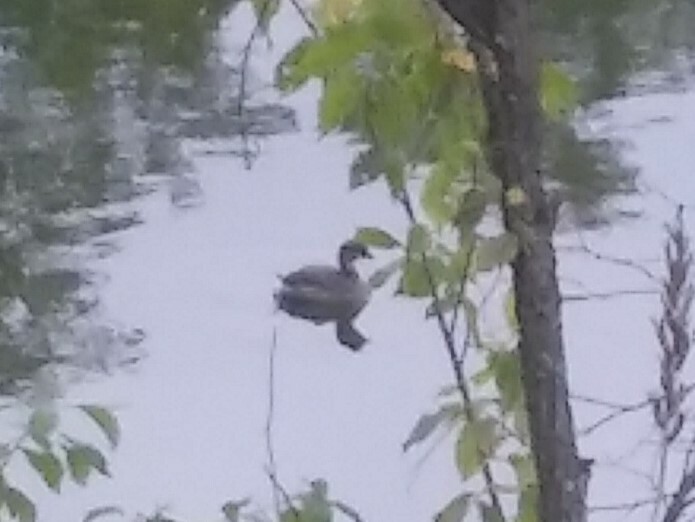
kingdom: Animalia
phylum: Chordata
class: Aves
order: Podicipediformes
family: Podicipedidae
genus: Podilymbus
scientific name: Podilymbus podiceps
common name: Pied-billed grebe
